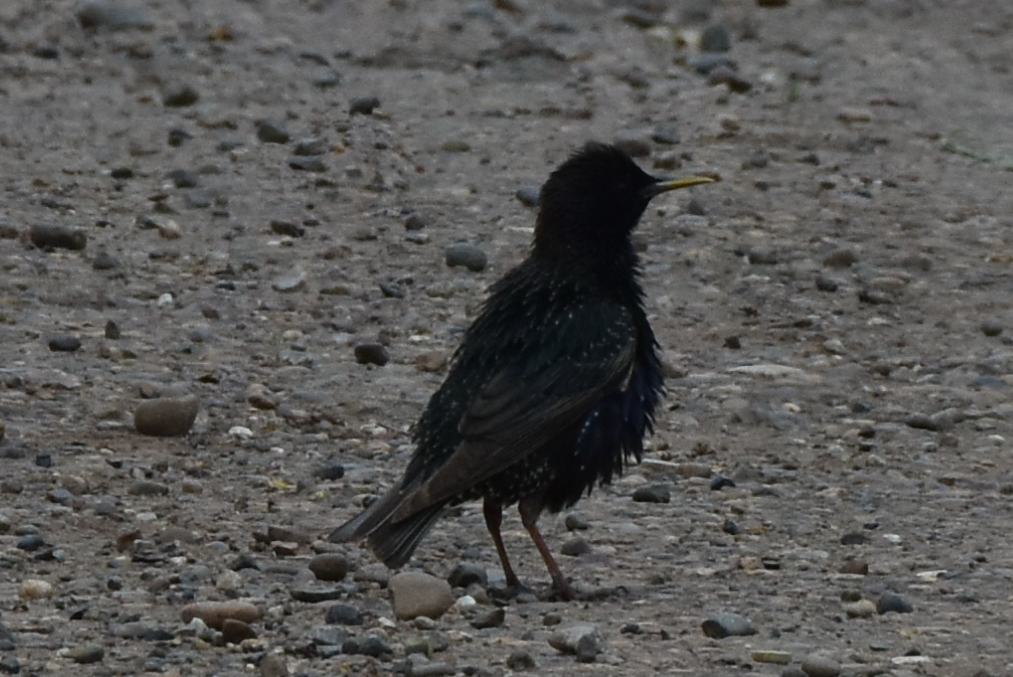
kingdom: Animalia
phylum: Chordata
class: Aves
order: Passeriformes
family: Sturnidae
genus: Sturnus
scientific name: Sturnus vulgaris
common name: Common starling
